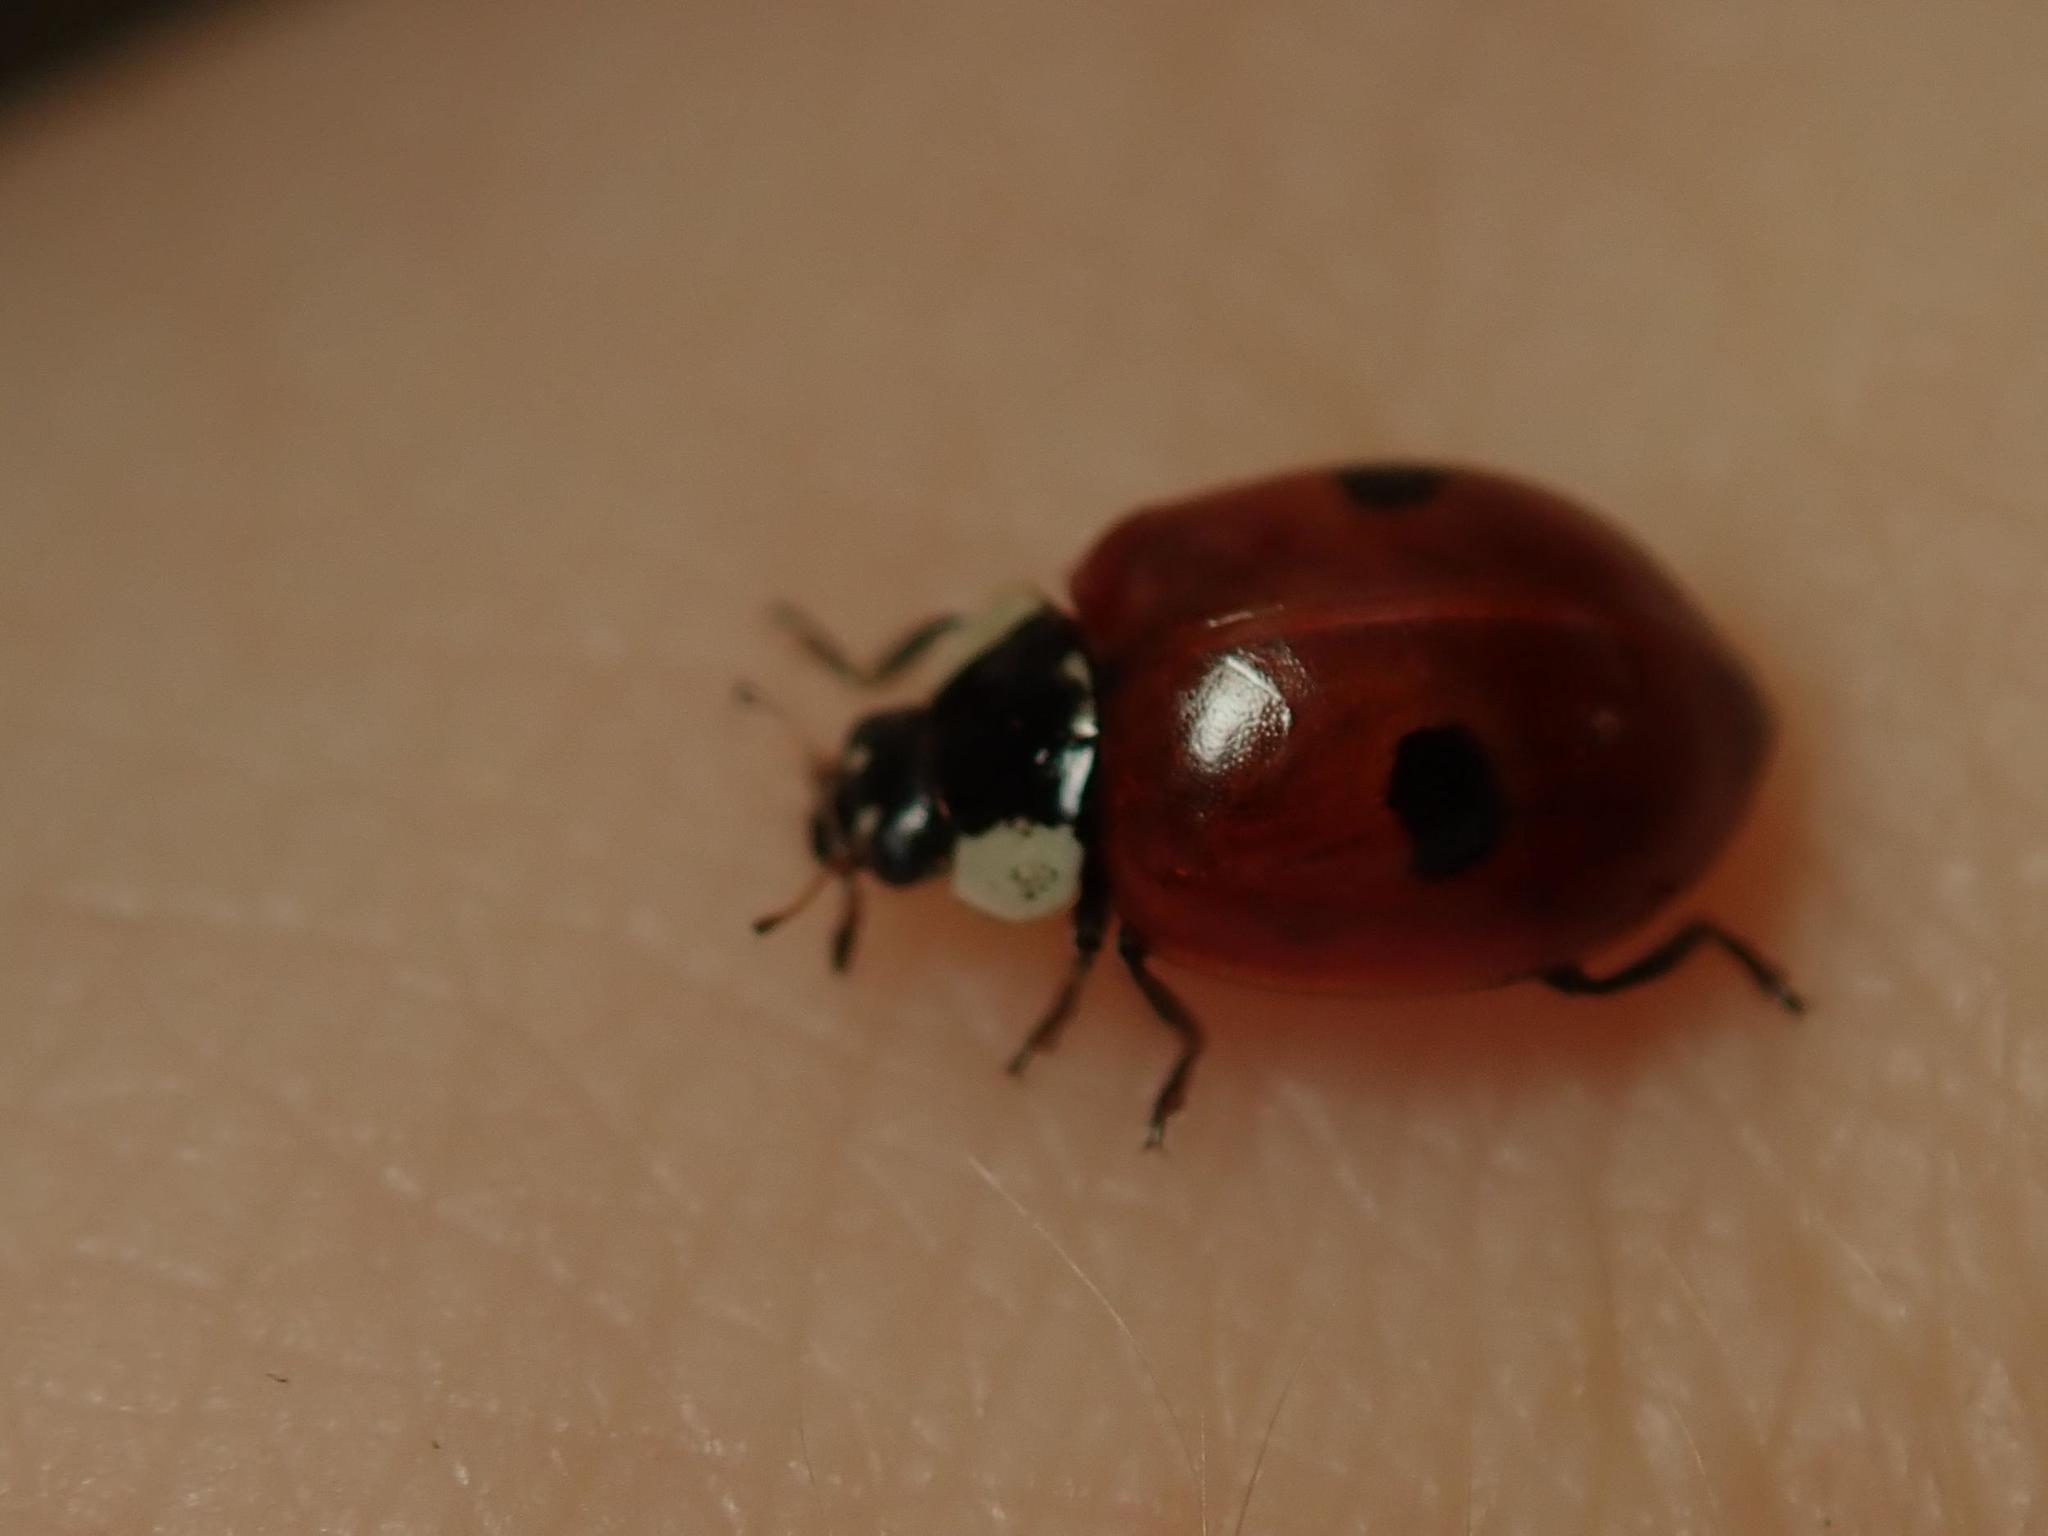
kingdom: Animalia
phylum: Arthropoda
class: Insecta
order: Coleoptera
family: Coccinellidae
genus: Adalia
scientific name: Adalia bipunctata
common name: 2-spot ladybird
